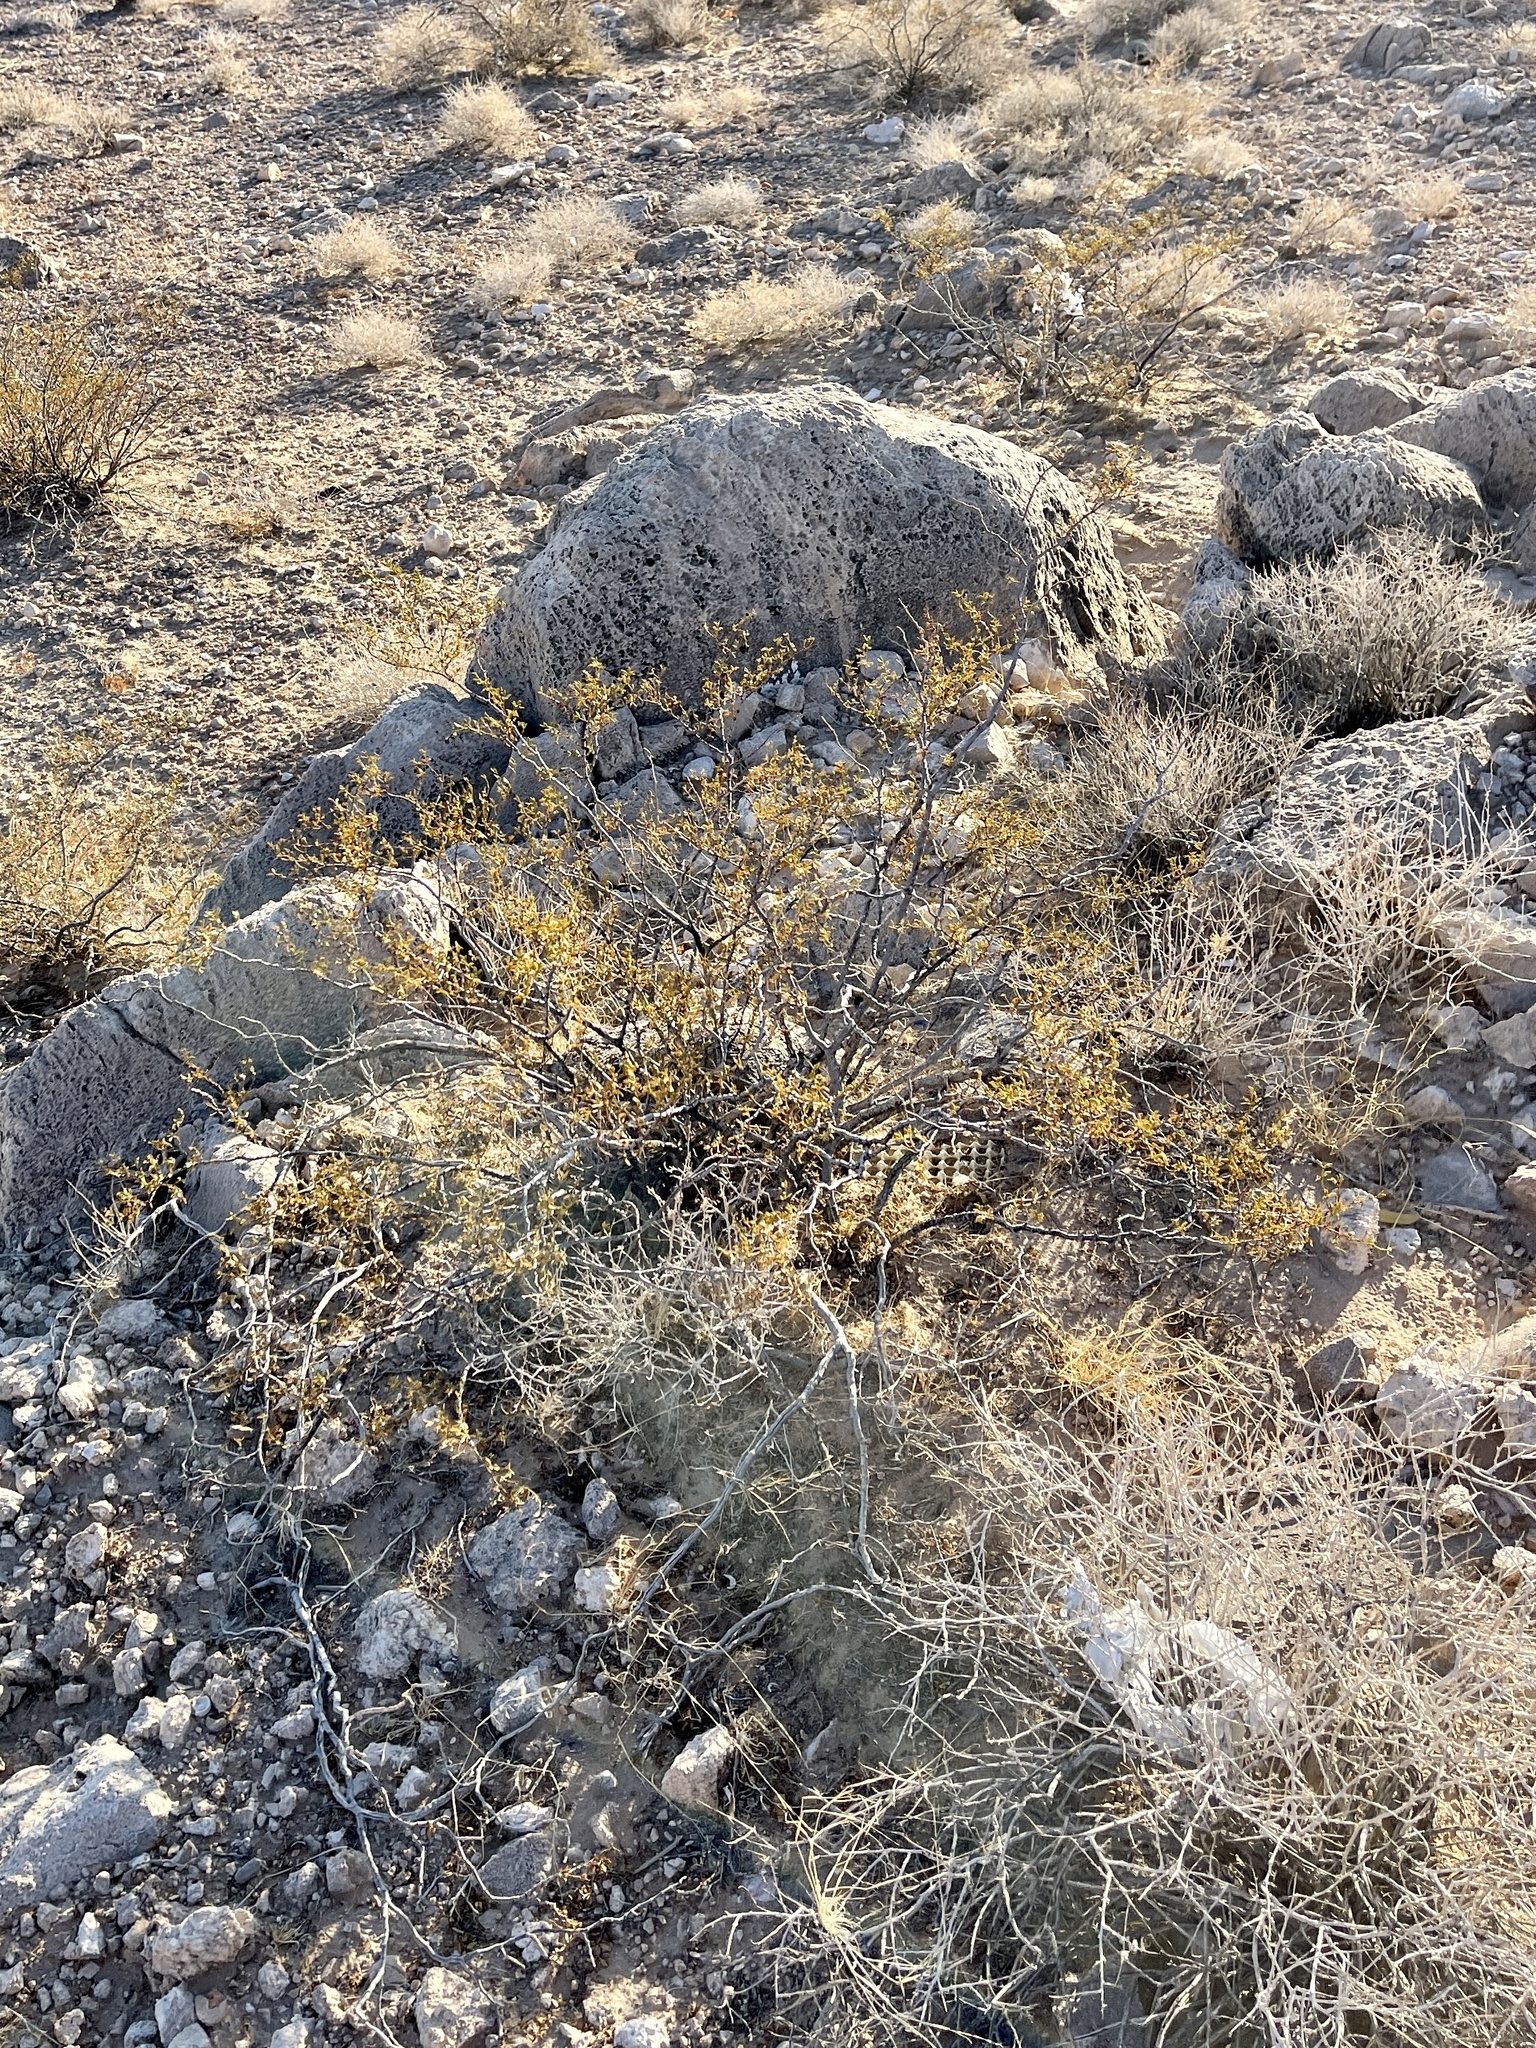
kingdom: Plantae
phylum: Tracheophyta
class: Magnoliopsida
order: Zygophyllales
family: Zygophyllaceae
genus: Larrea
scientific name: Larrea tridentata
